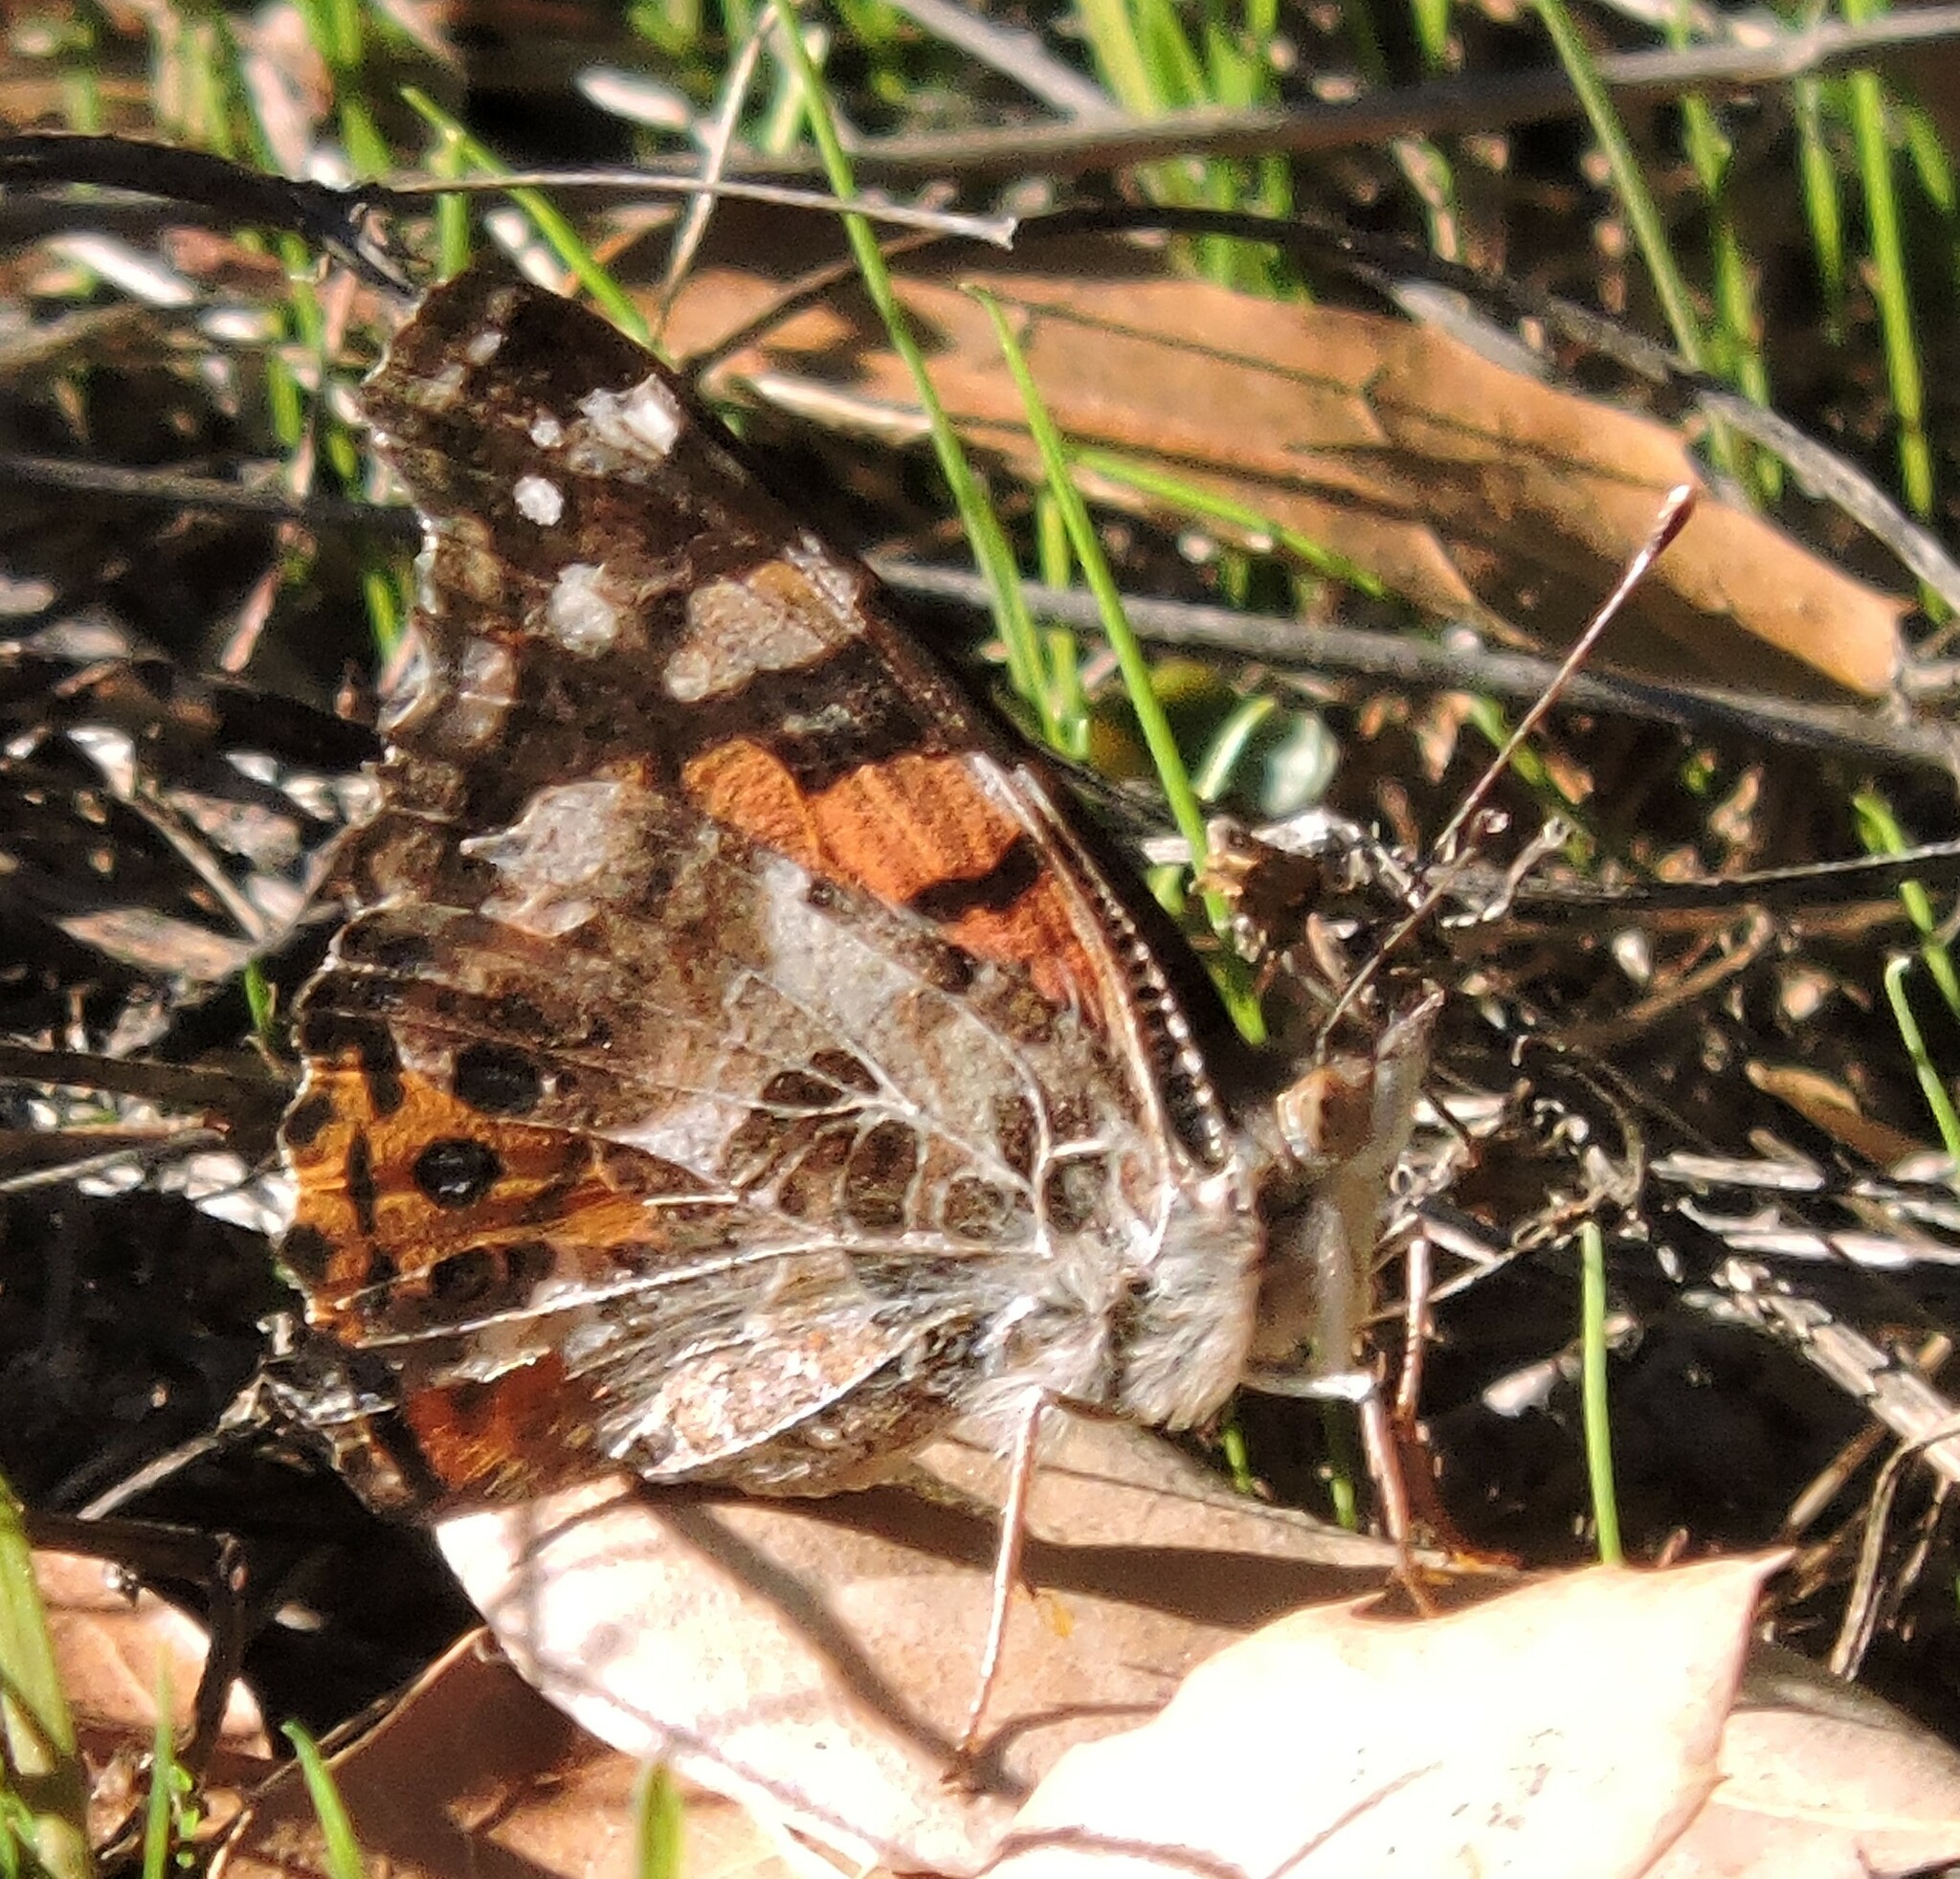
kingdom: Animalia
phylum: Arthropoda
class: Insecta
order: Lepidoptera
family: Nymphalidae
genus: Vanessa
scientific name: Vanessa annabella
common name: West coast lady
